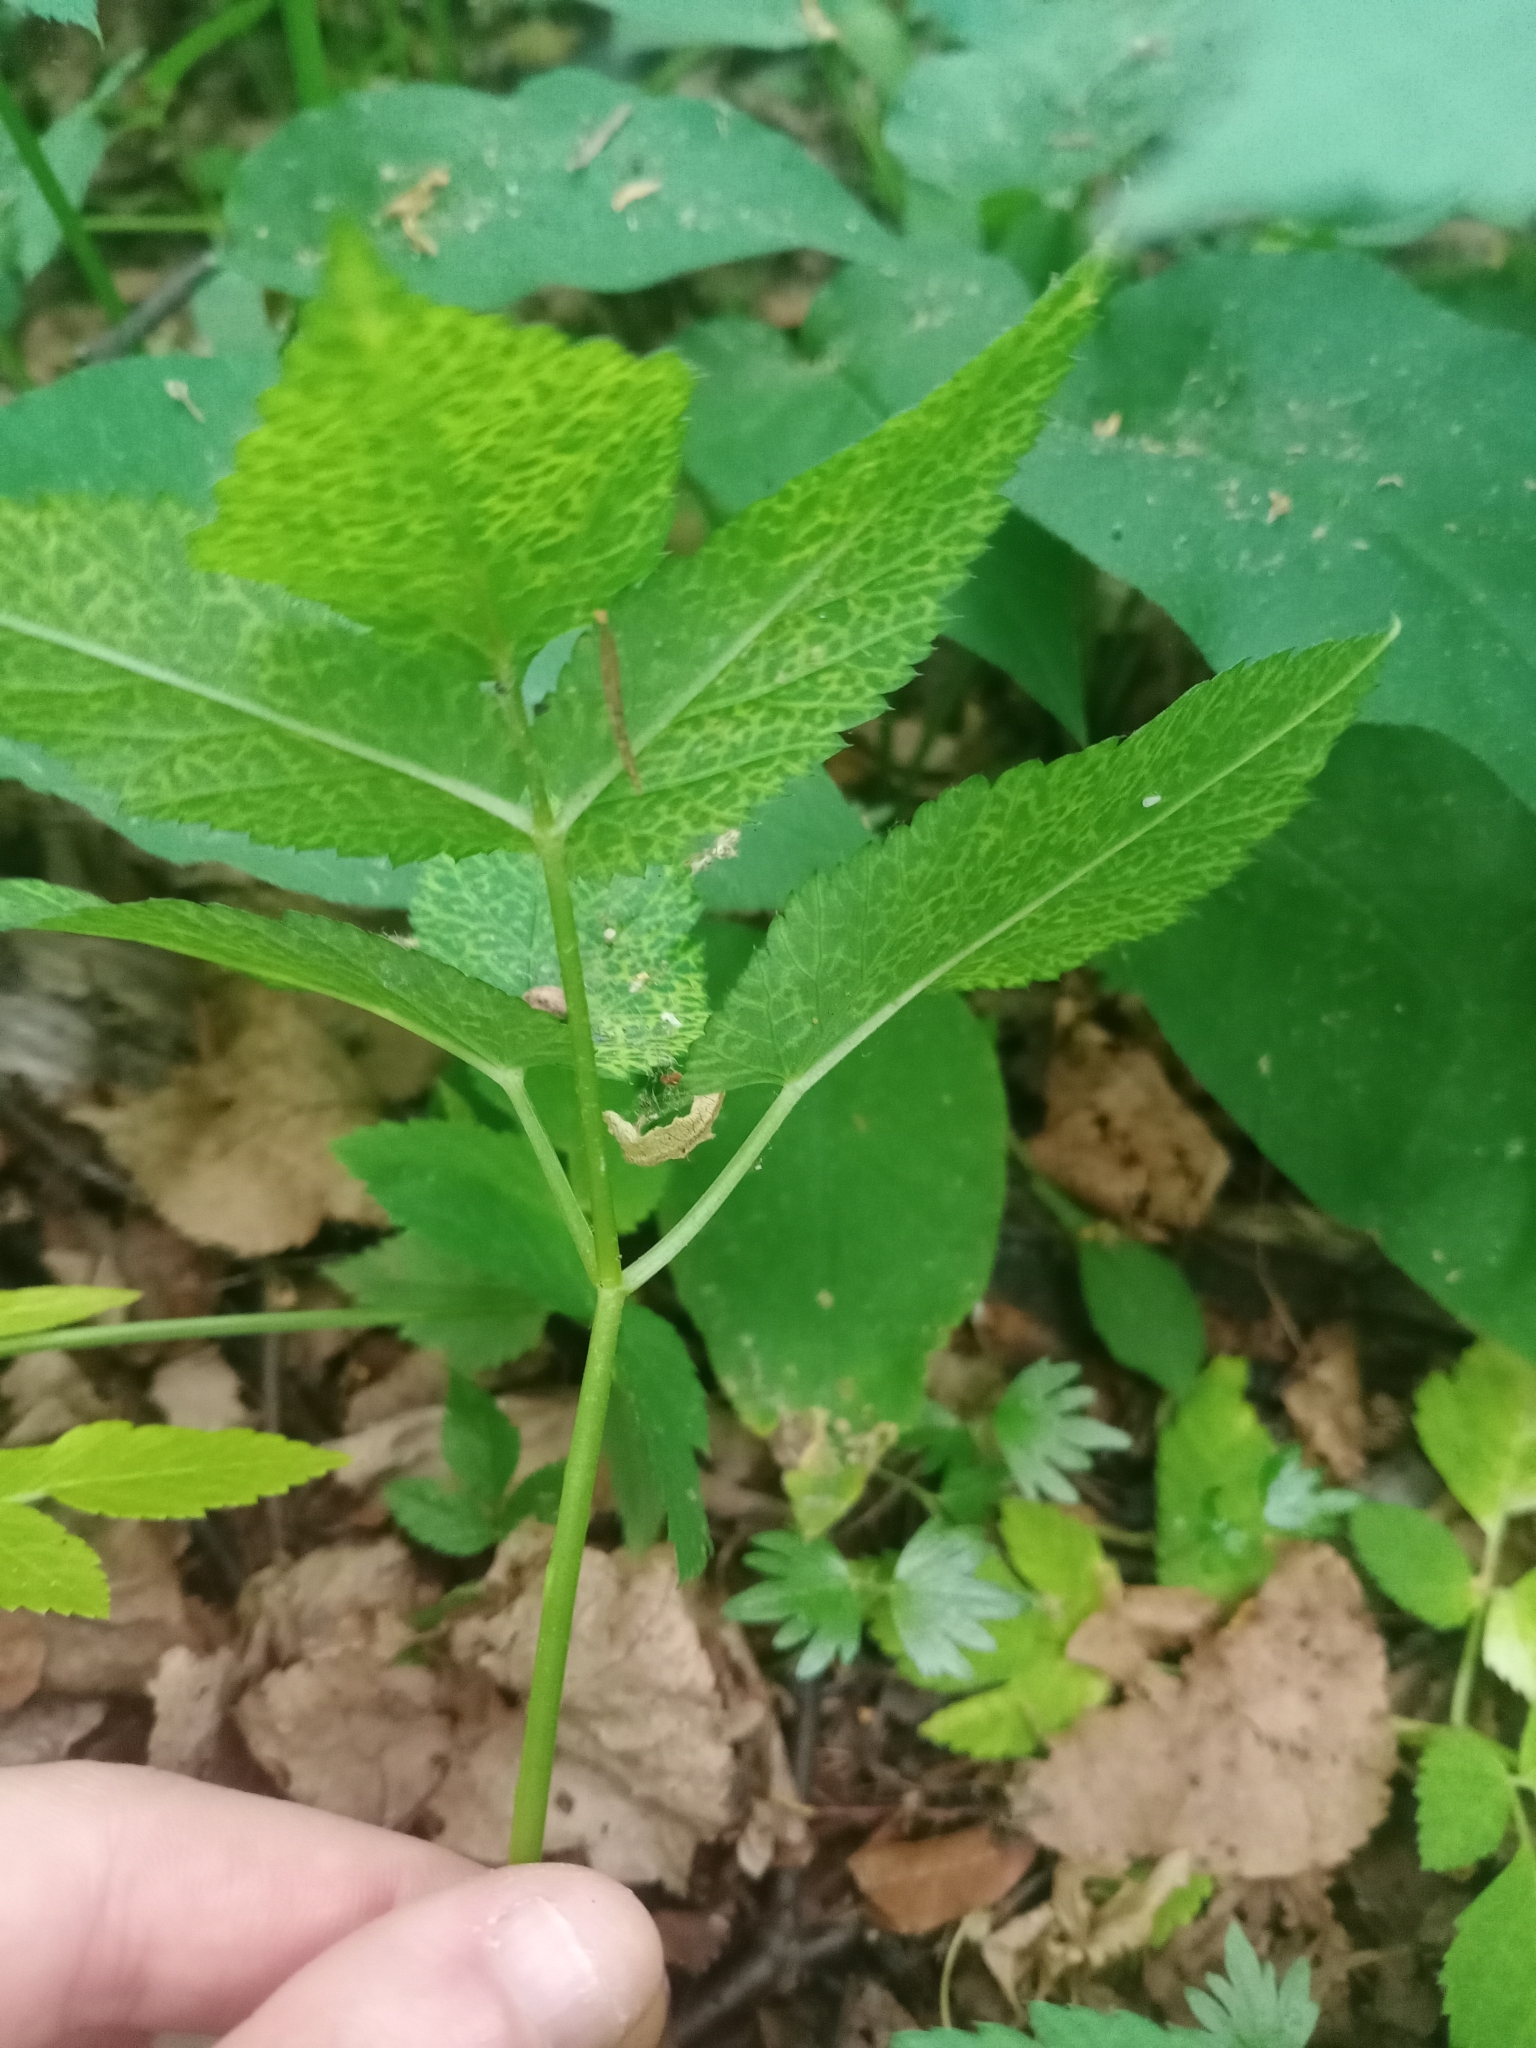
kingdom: Plantae
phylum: Tracheophyta
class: Magnoliopsida
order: Apiales
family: Apiaceae
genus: Aegopodium
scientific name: Aegopodium podagraria
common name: Ground-elder
